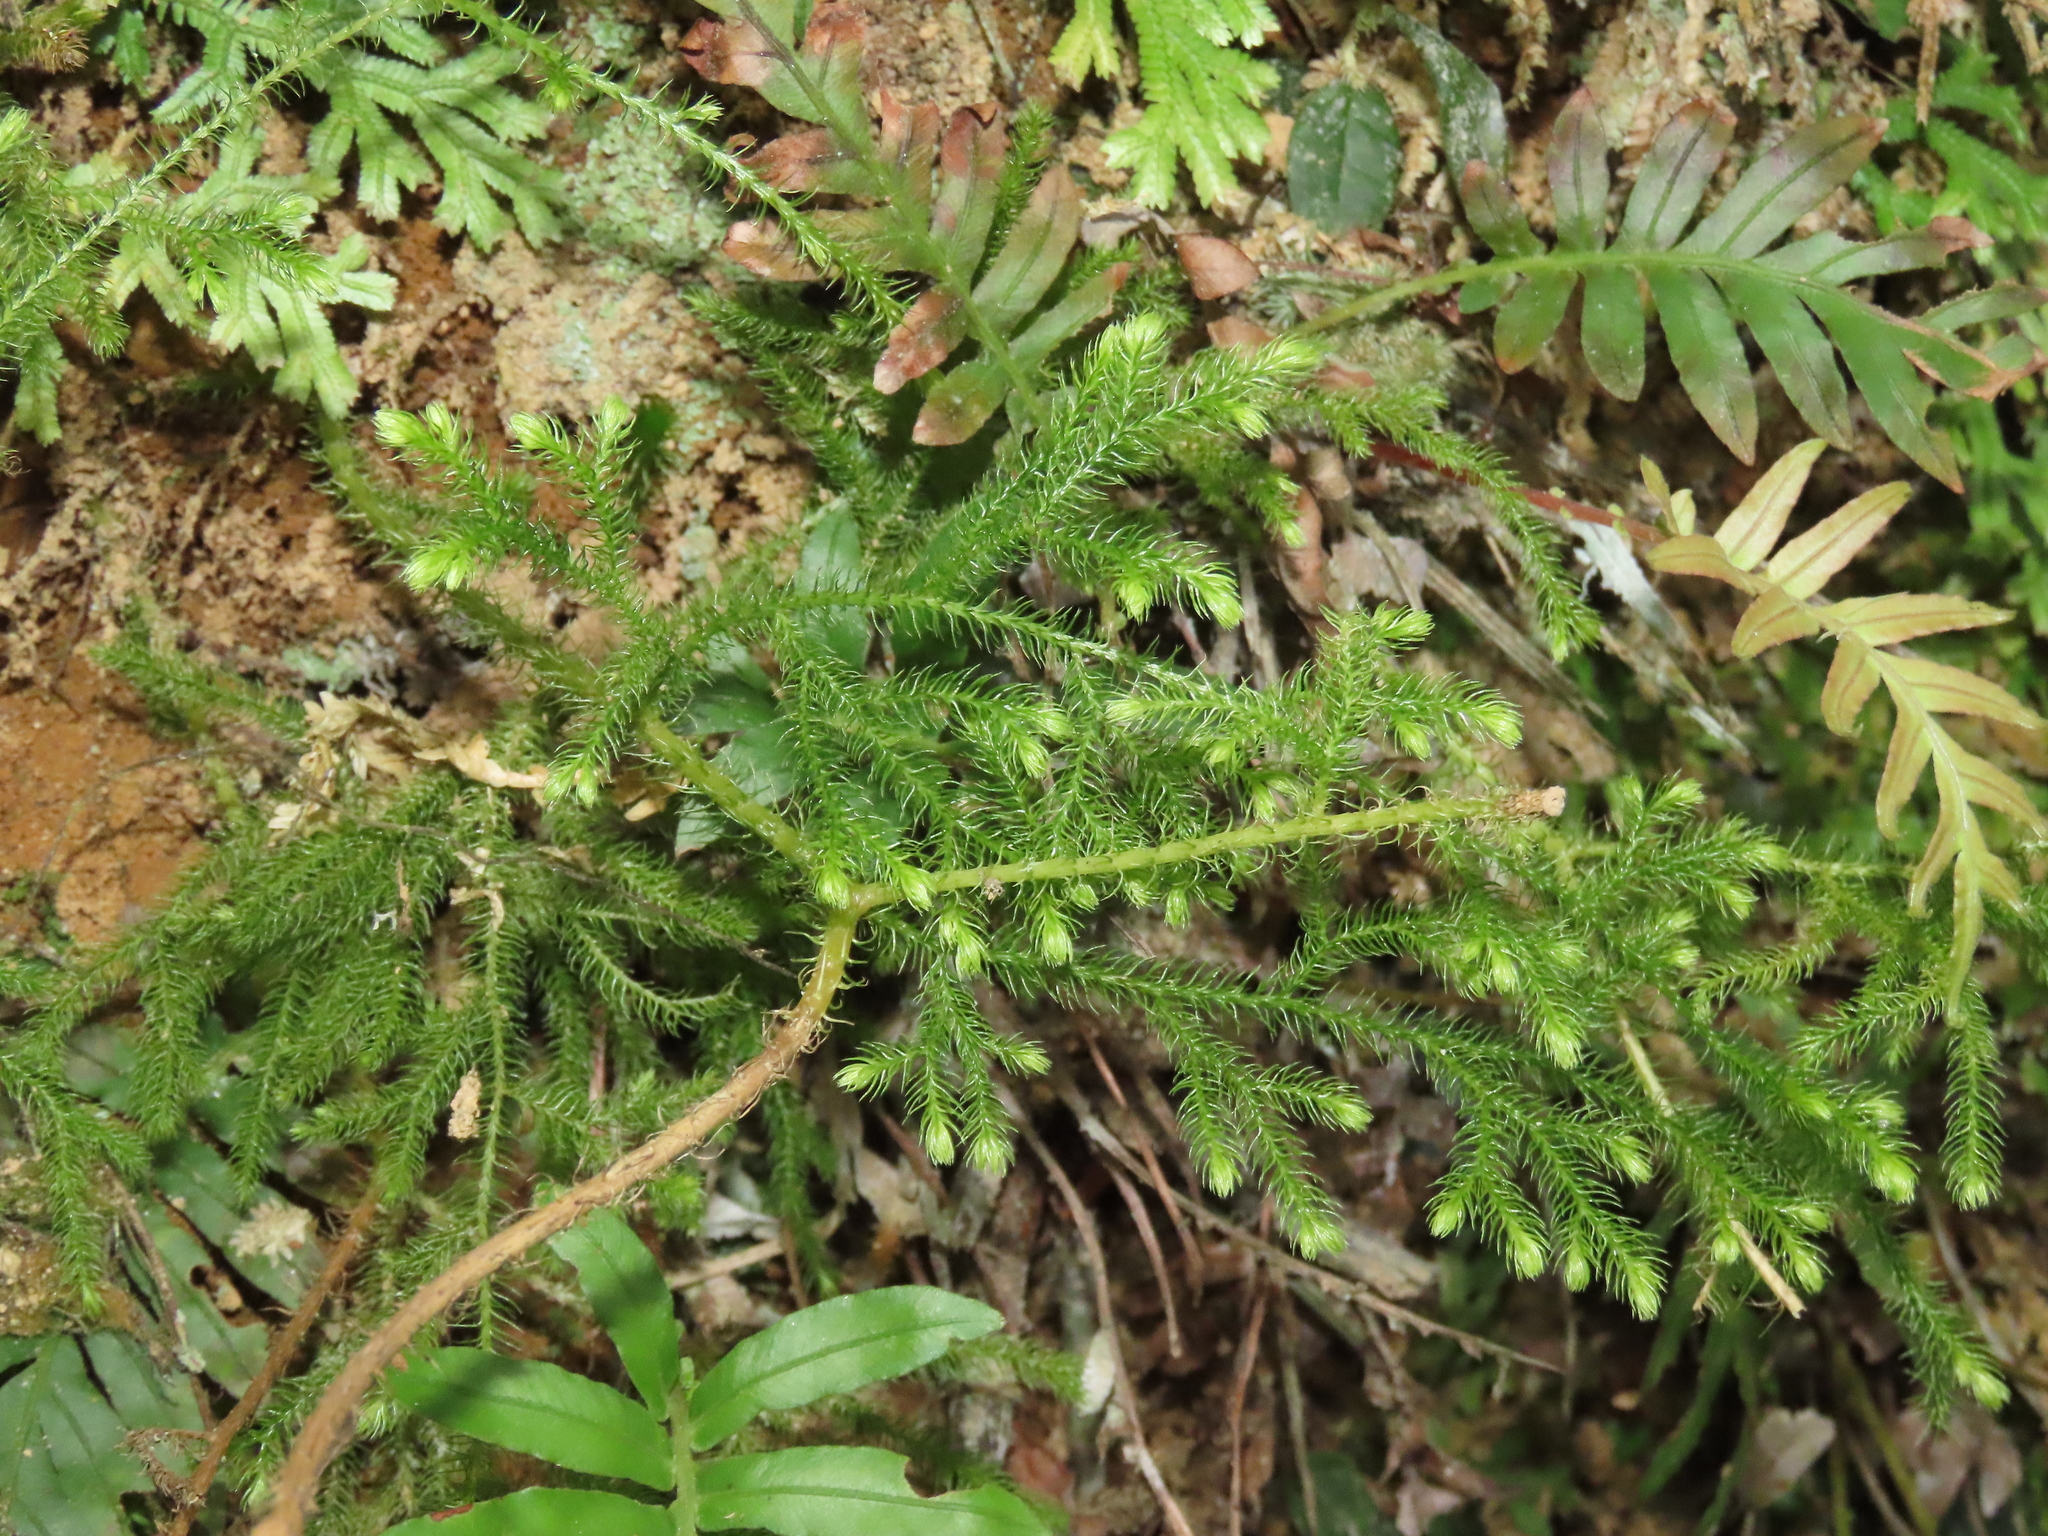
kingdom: Plantae
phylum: Tracheophyta
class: Lycopodiopsida
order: Lycopodiales
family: Lycopodiaceae
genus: Palhinhaea
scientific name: Palhinhaea cernua
